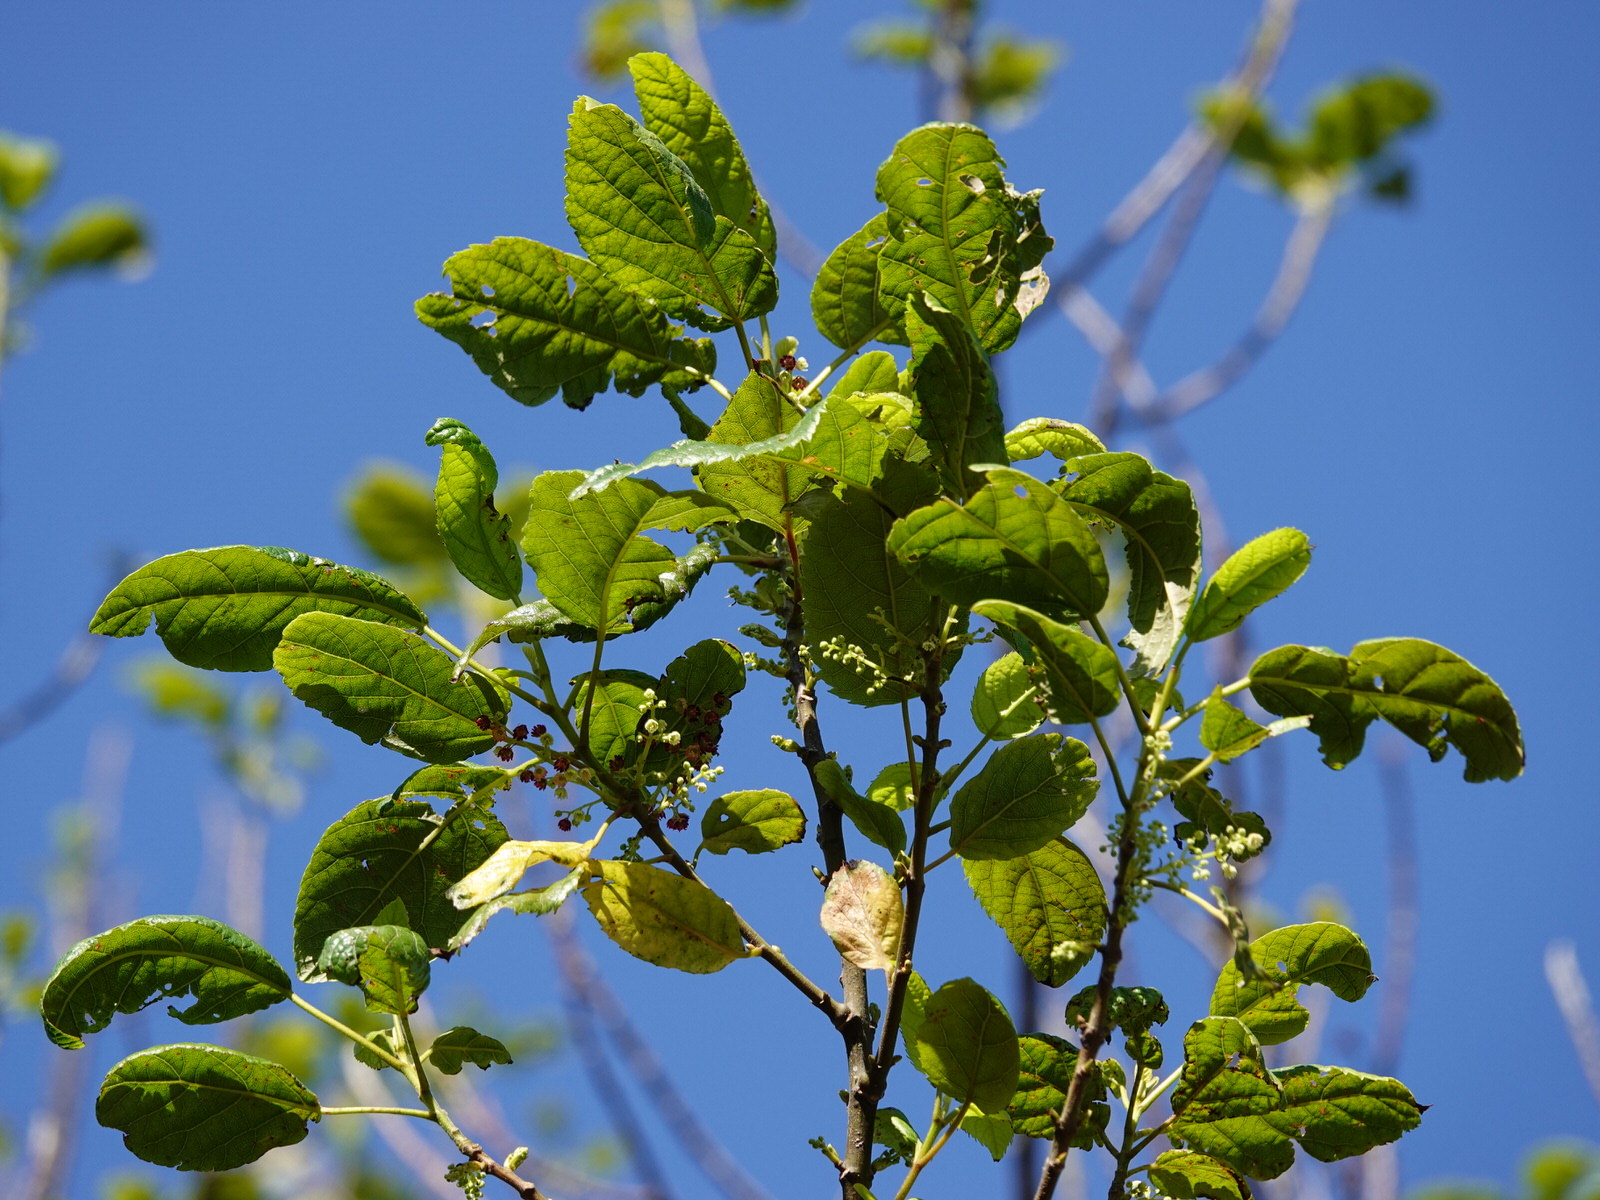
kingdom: Plantae
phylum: Tracheophyta
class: Magnoliopsida
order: Oxalidales
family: Elaeocarpaceae
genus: Aristotelia
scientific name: Aristotelia serrata
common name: New zealand wineberry
